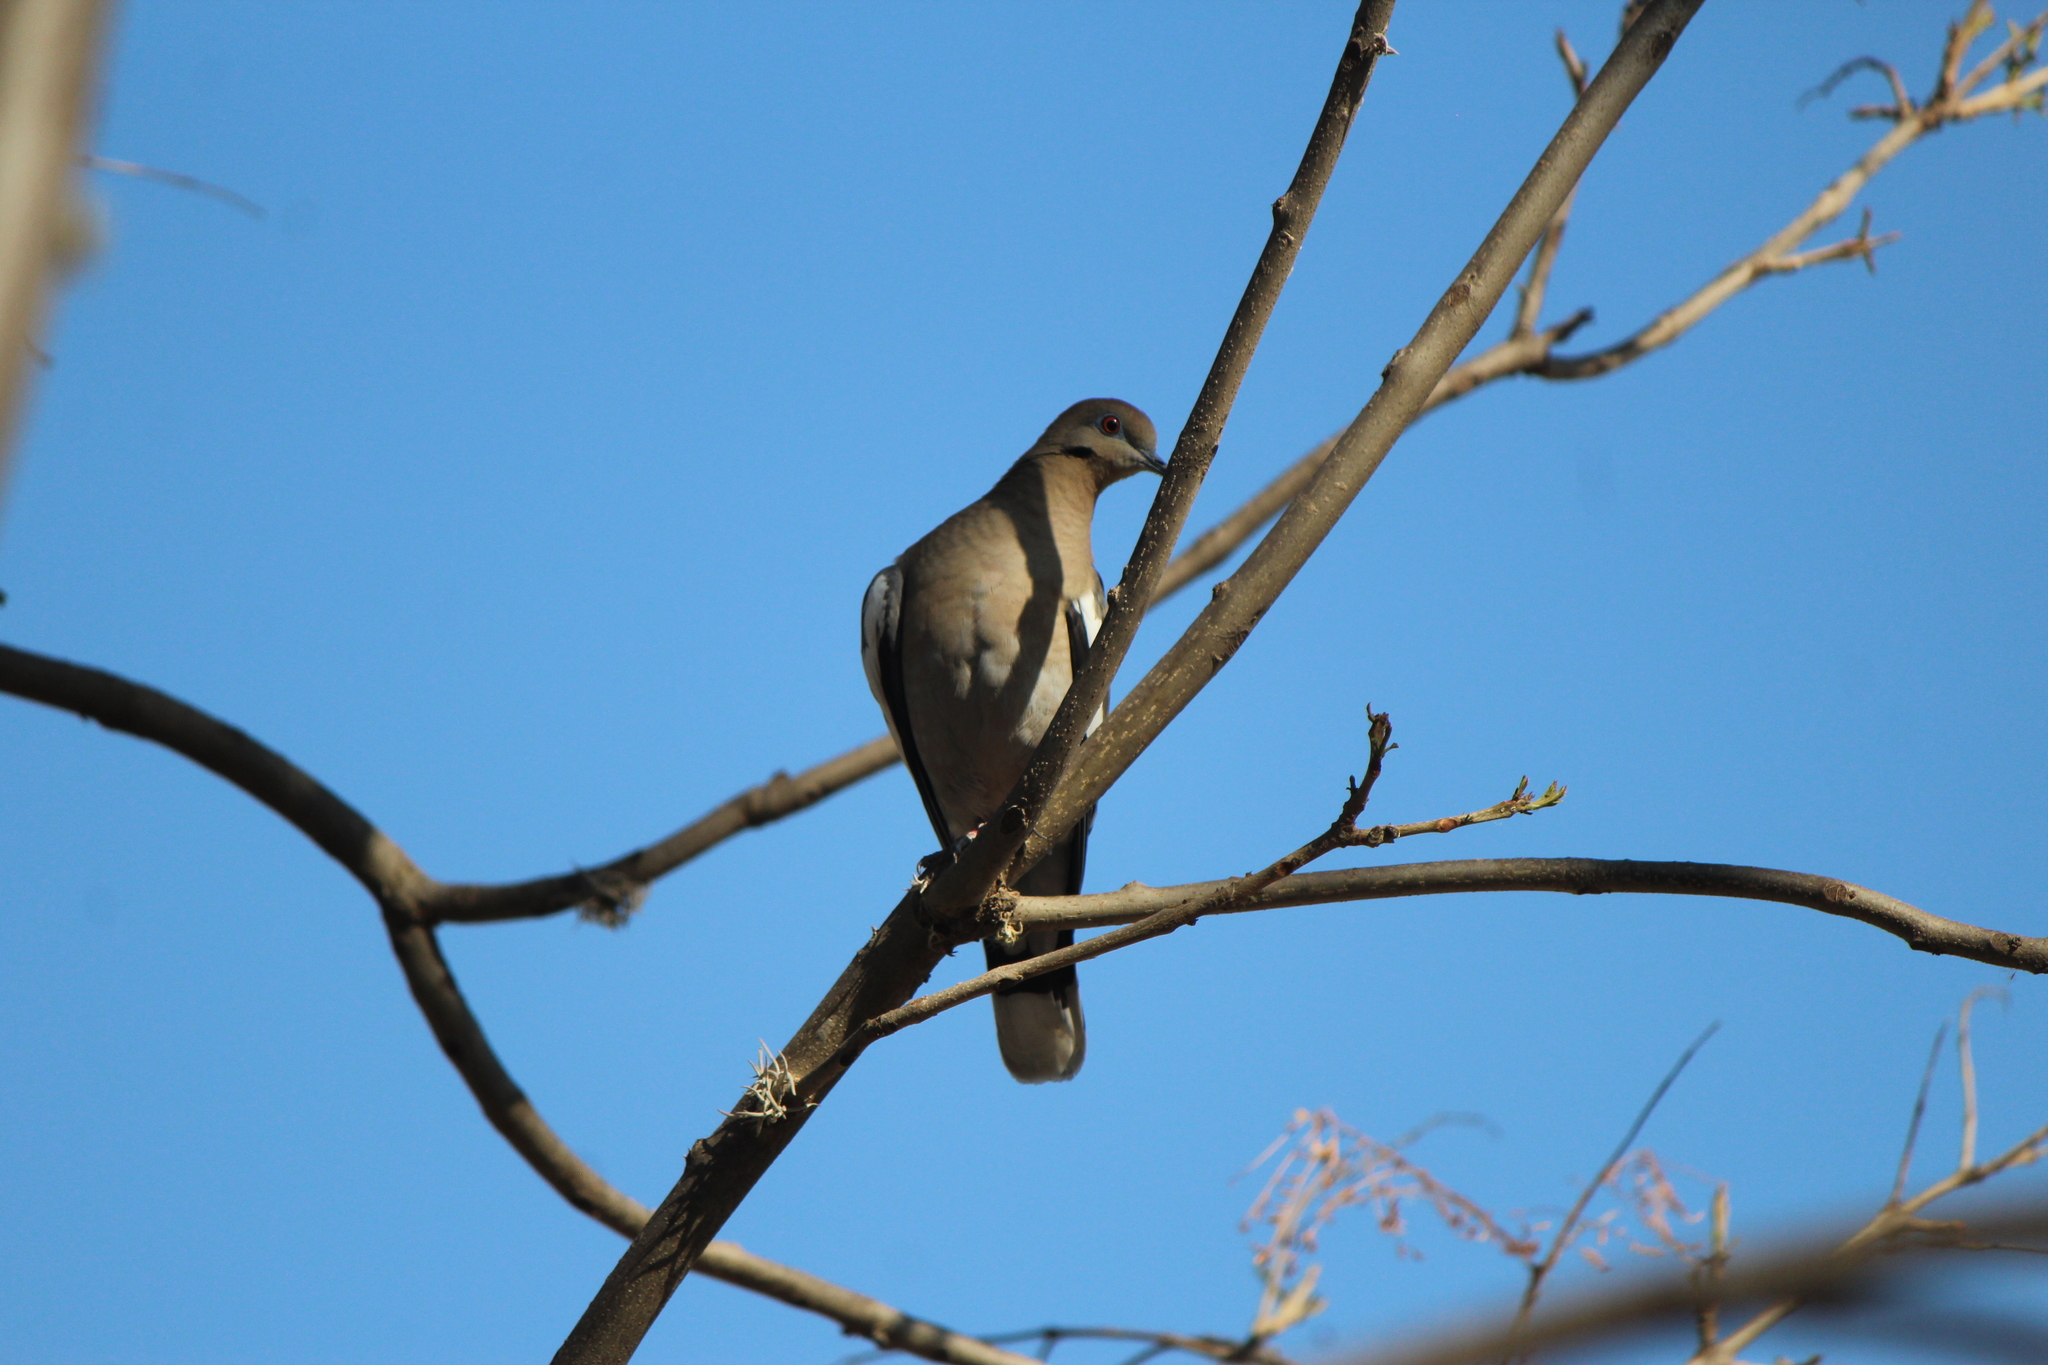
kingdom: Animalia
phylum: Chordata
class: Aves
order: Columbiformes
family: Columbidae
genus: Zenaida
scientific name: Zenaida asiatica
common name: White-winged dove
